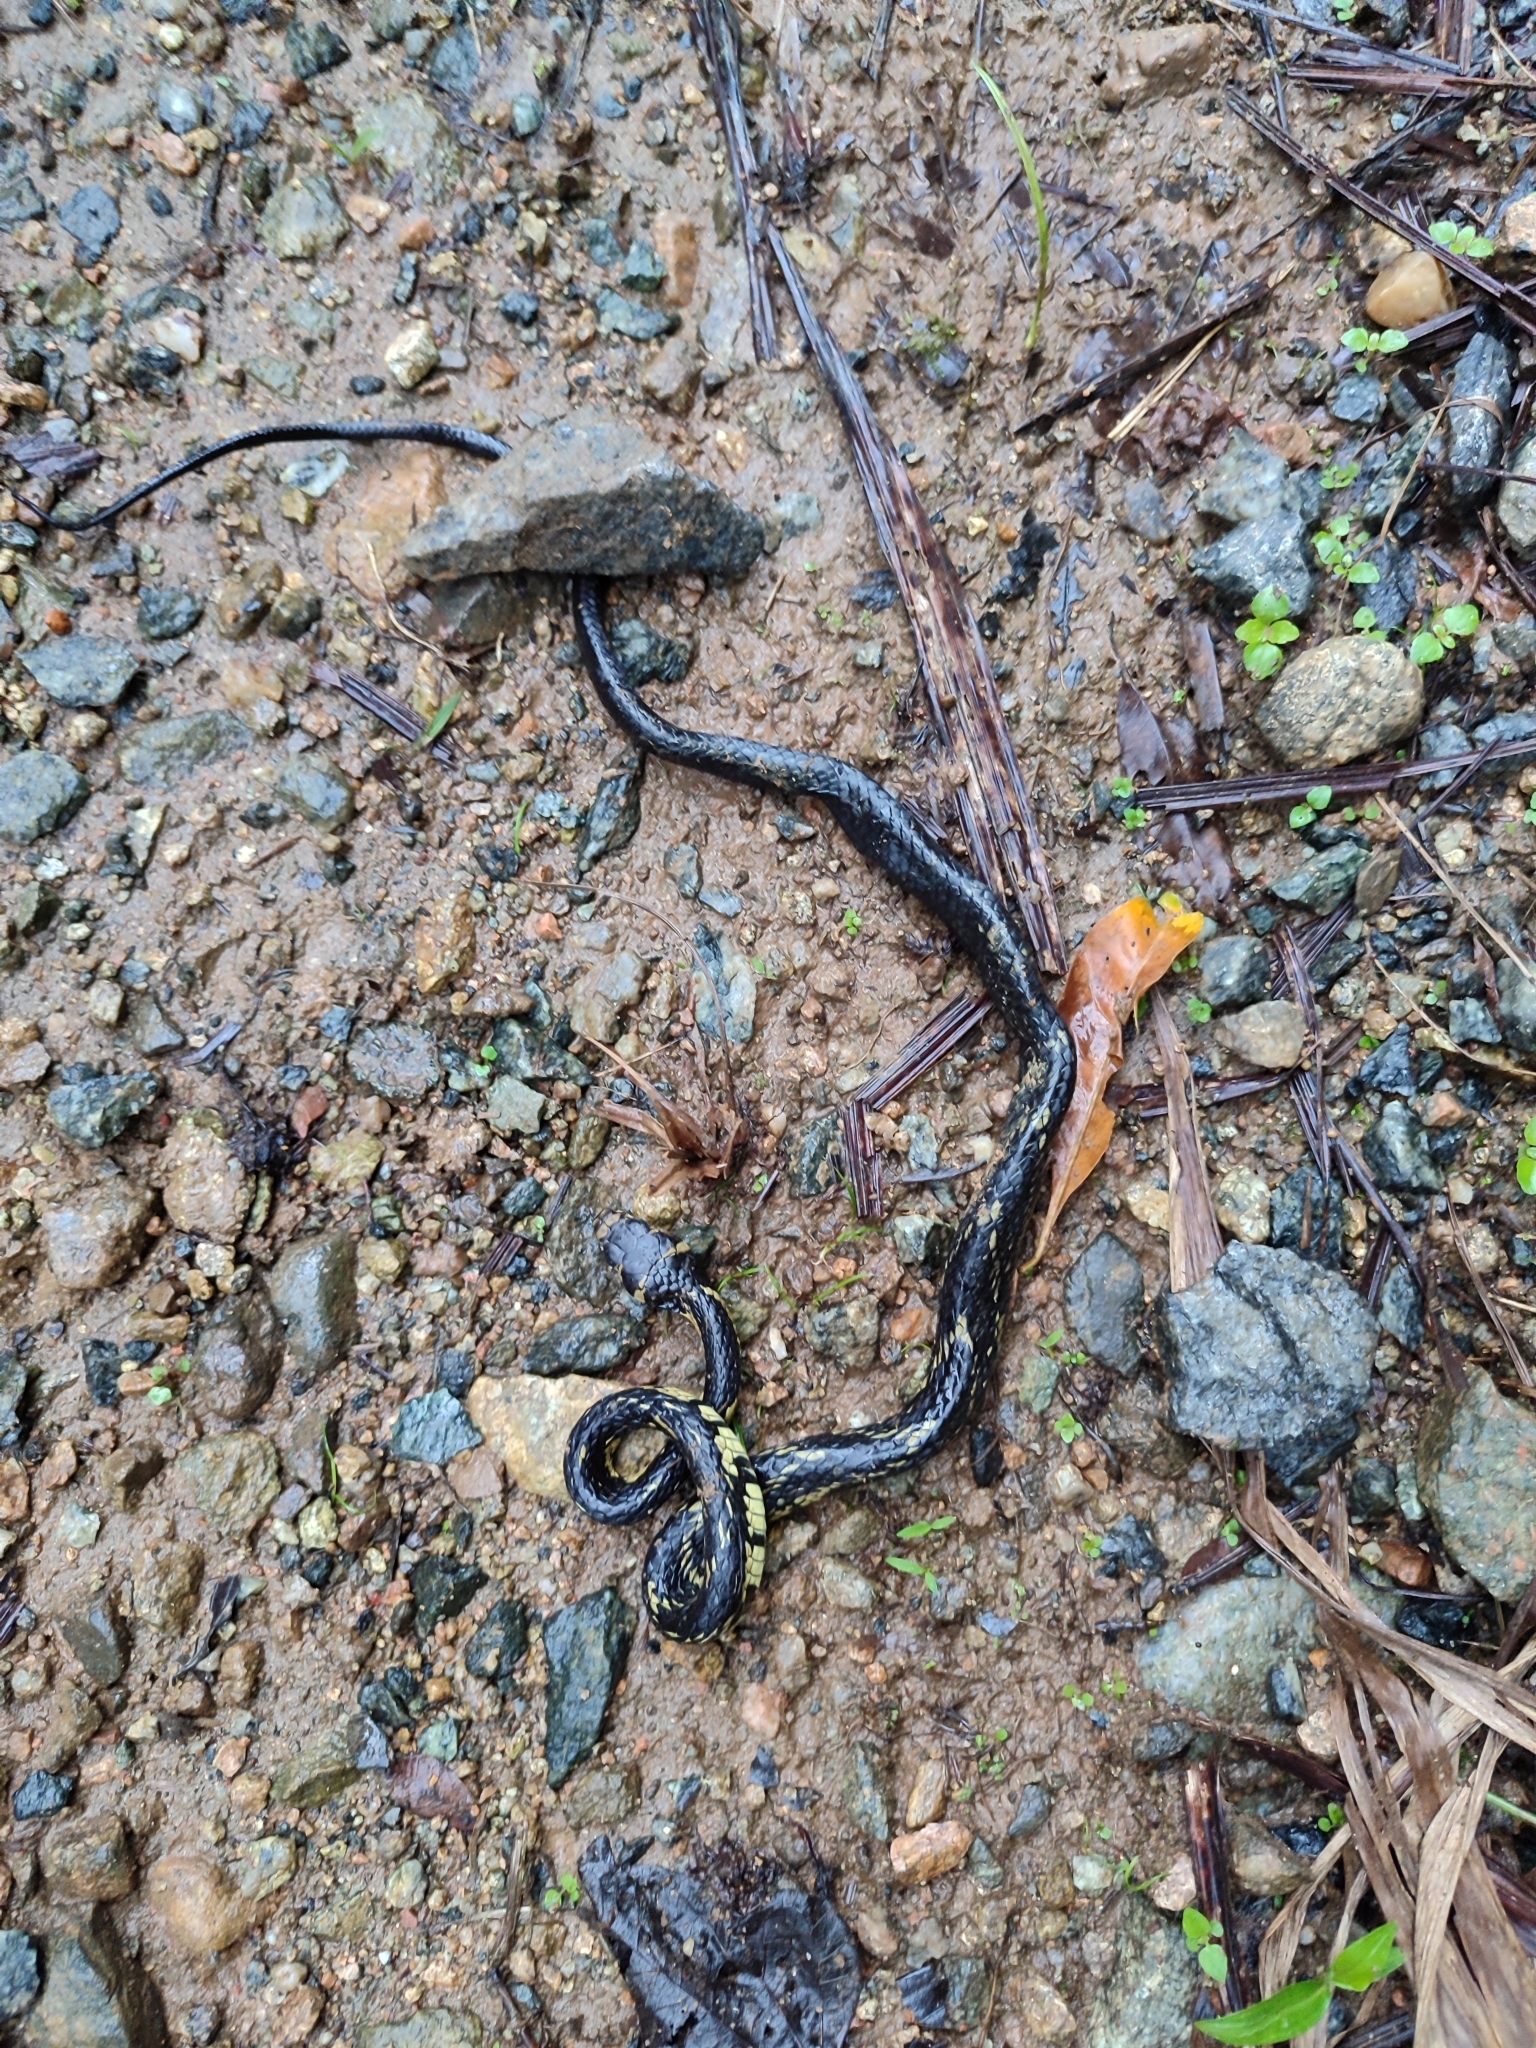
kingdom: Animalia
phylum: Chordata
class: Squamata
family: Colubridae
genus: Spilotes
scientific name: Spilotes pullatus
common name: Chicken snake
